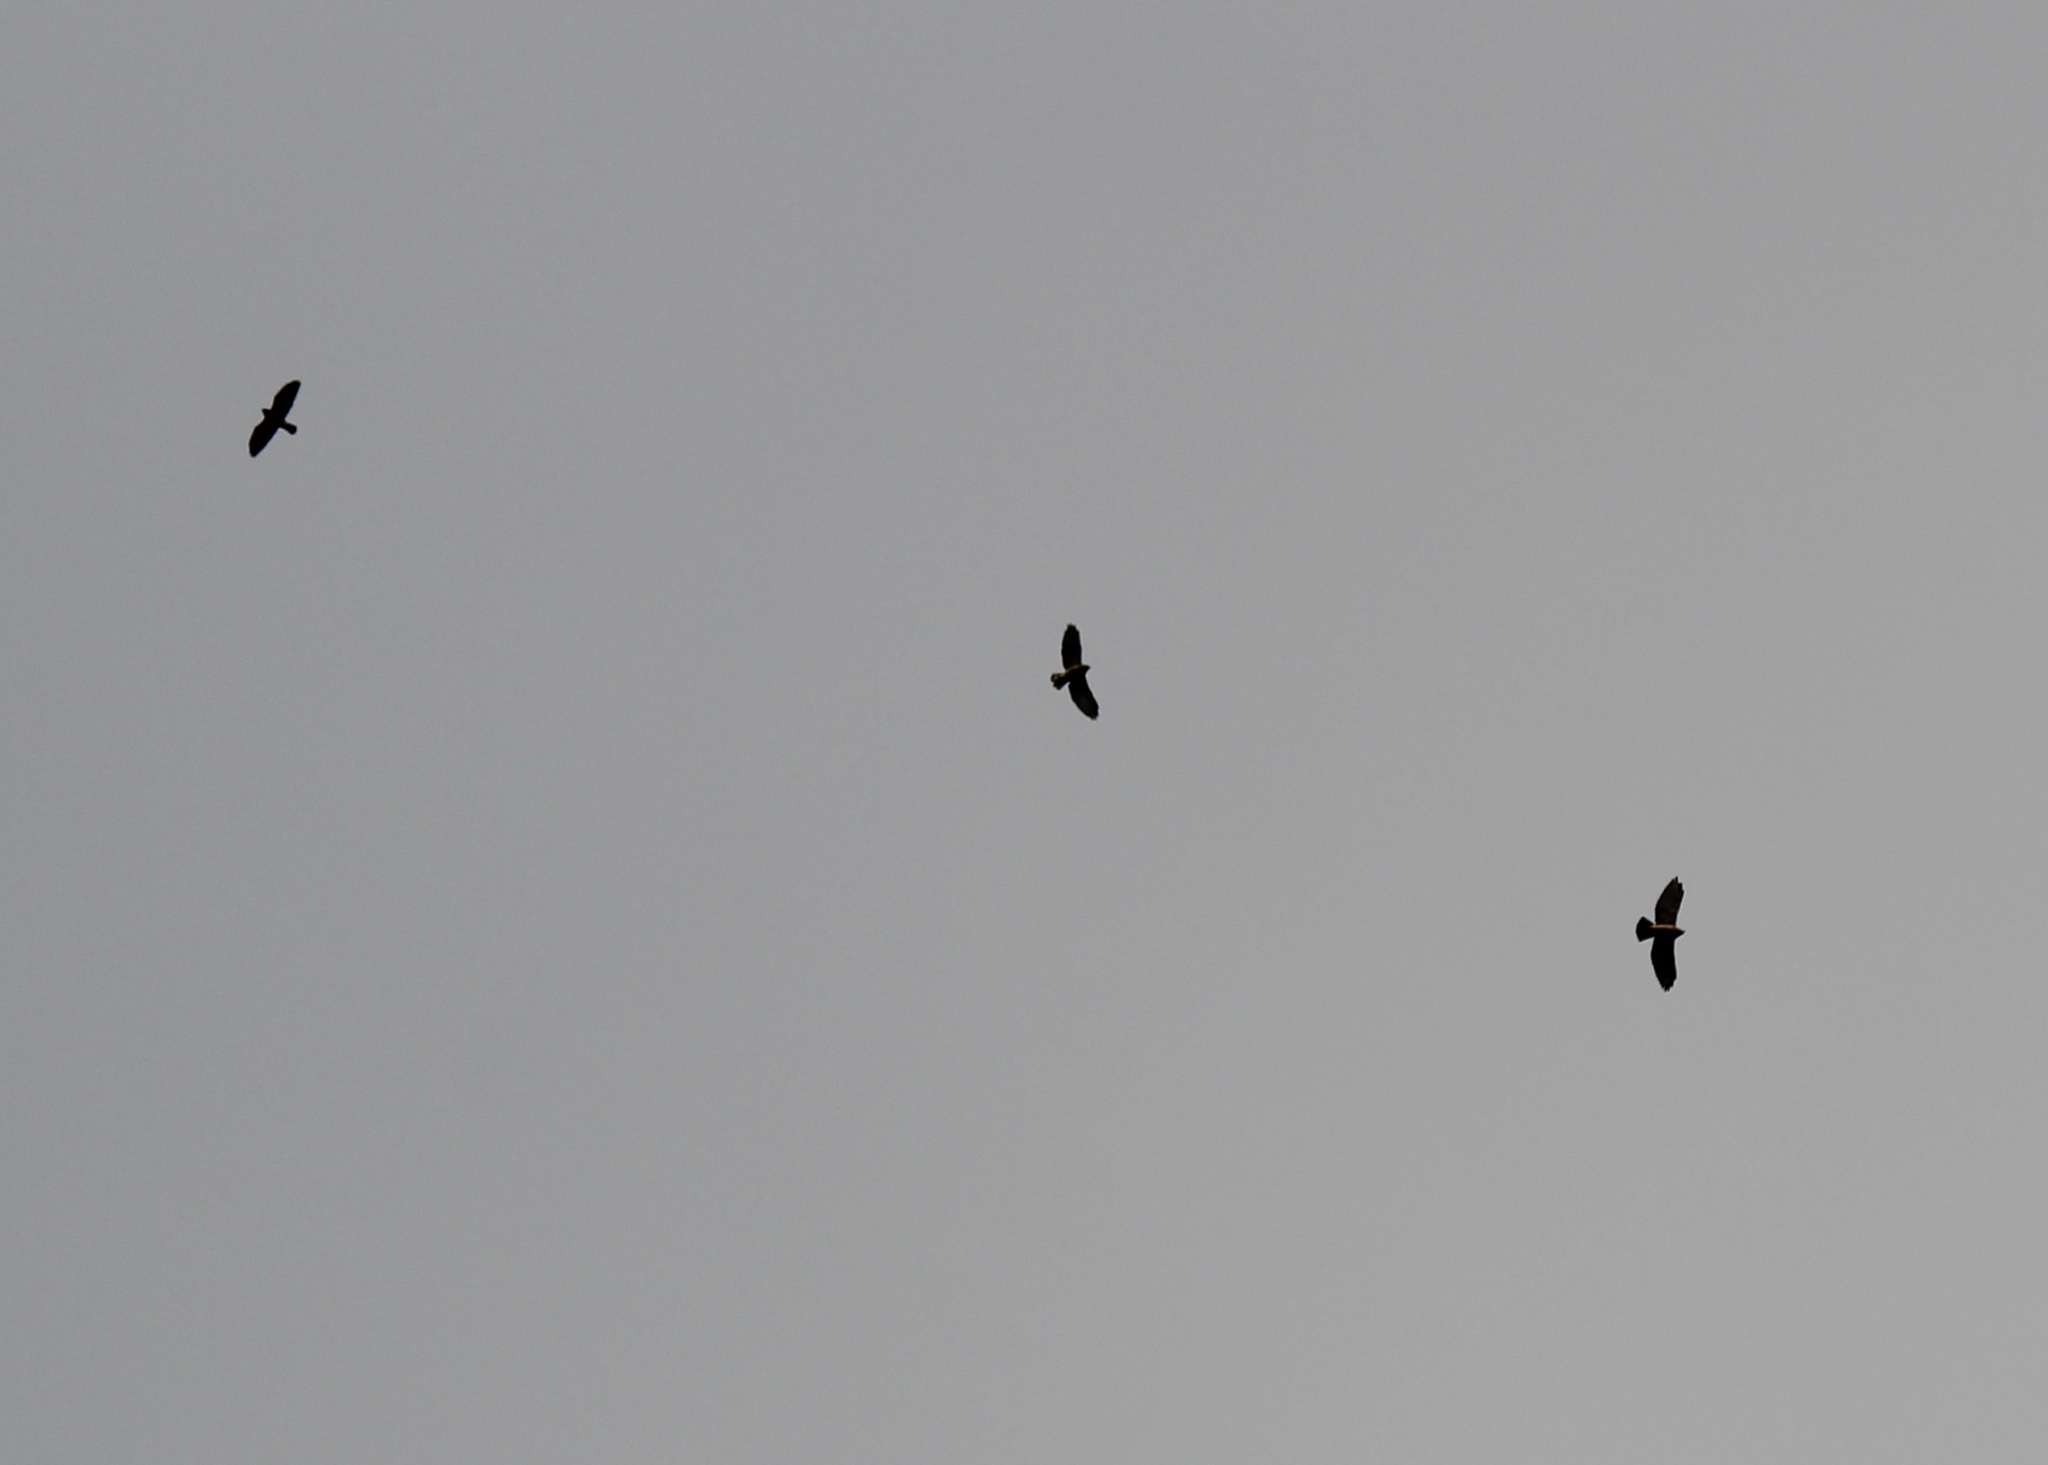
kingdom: Animalia
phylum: Chordata
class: Aves
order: Accipitriformes
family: Accipitridae
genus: Buteo
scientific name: Buteo platypterus
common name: Broad-winged hawk
